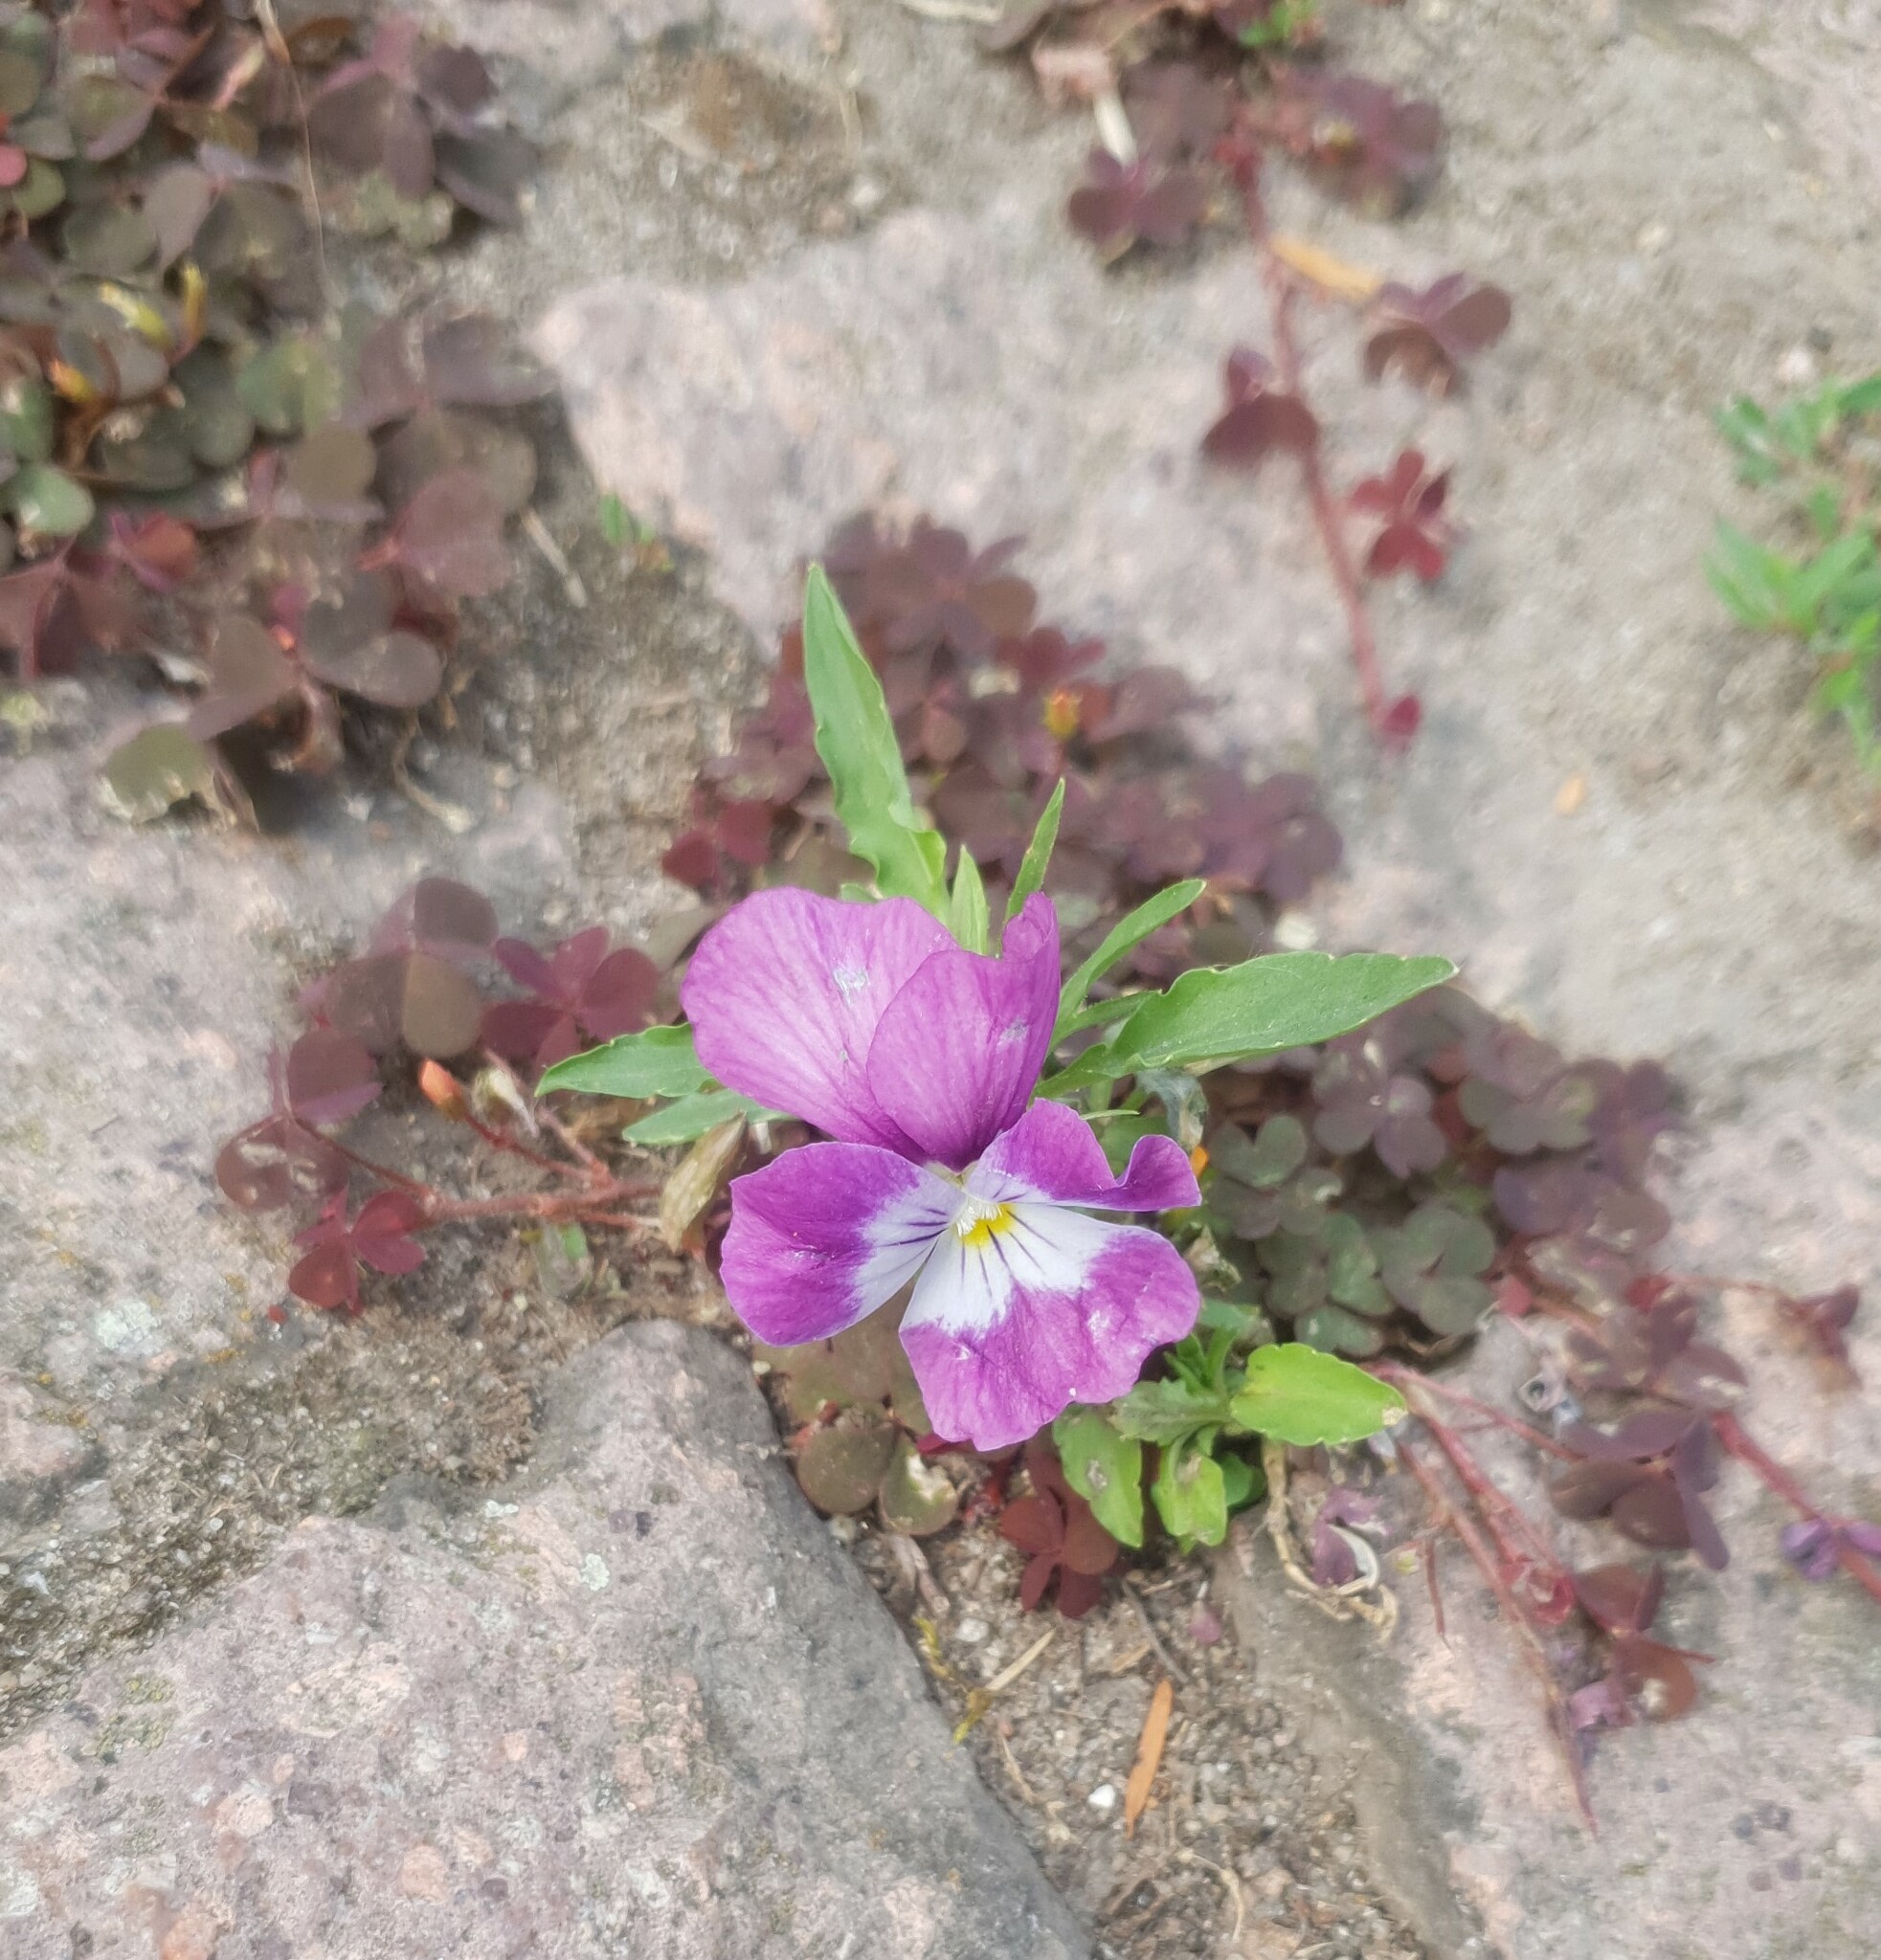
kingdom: Plantae
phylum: Tracheophyta
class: Magnoliopsida
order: Malpighiales
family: Violaceae
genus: Viola
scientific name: Viola wittrockiana
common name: Garden pansy
